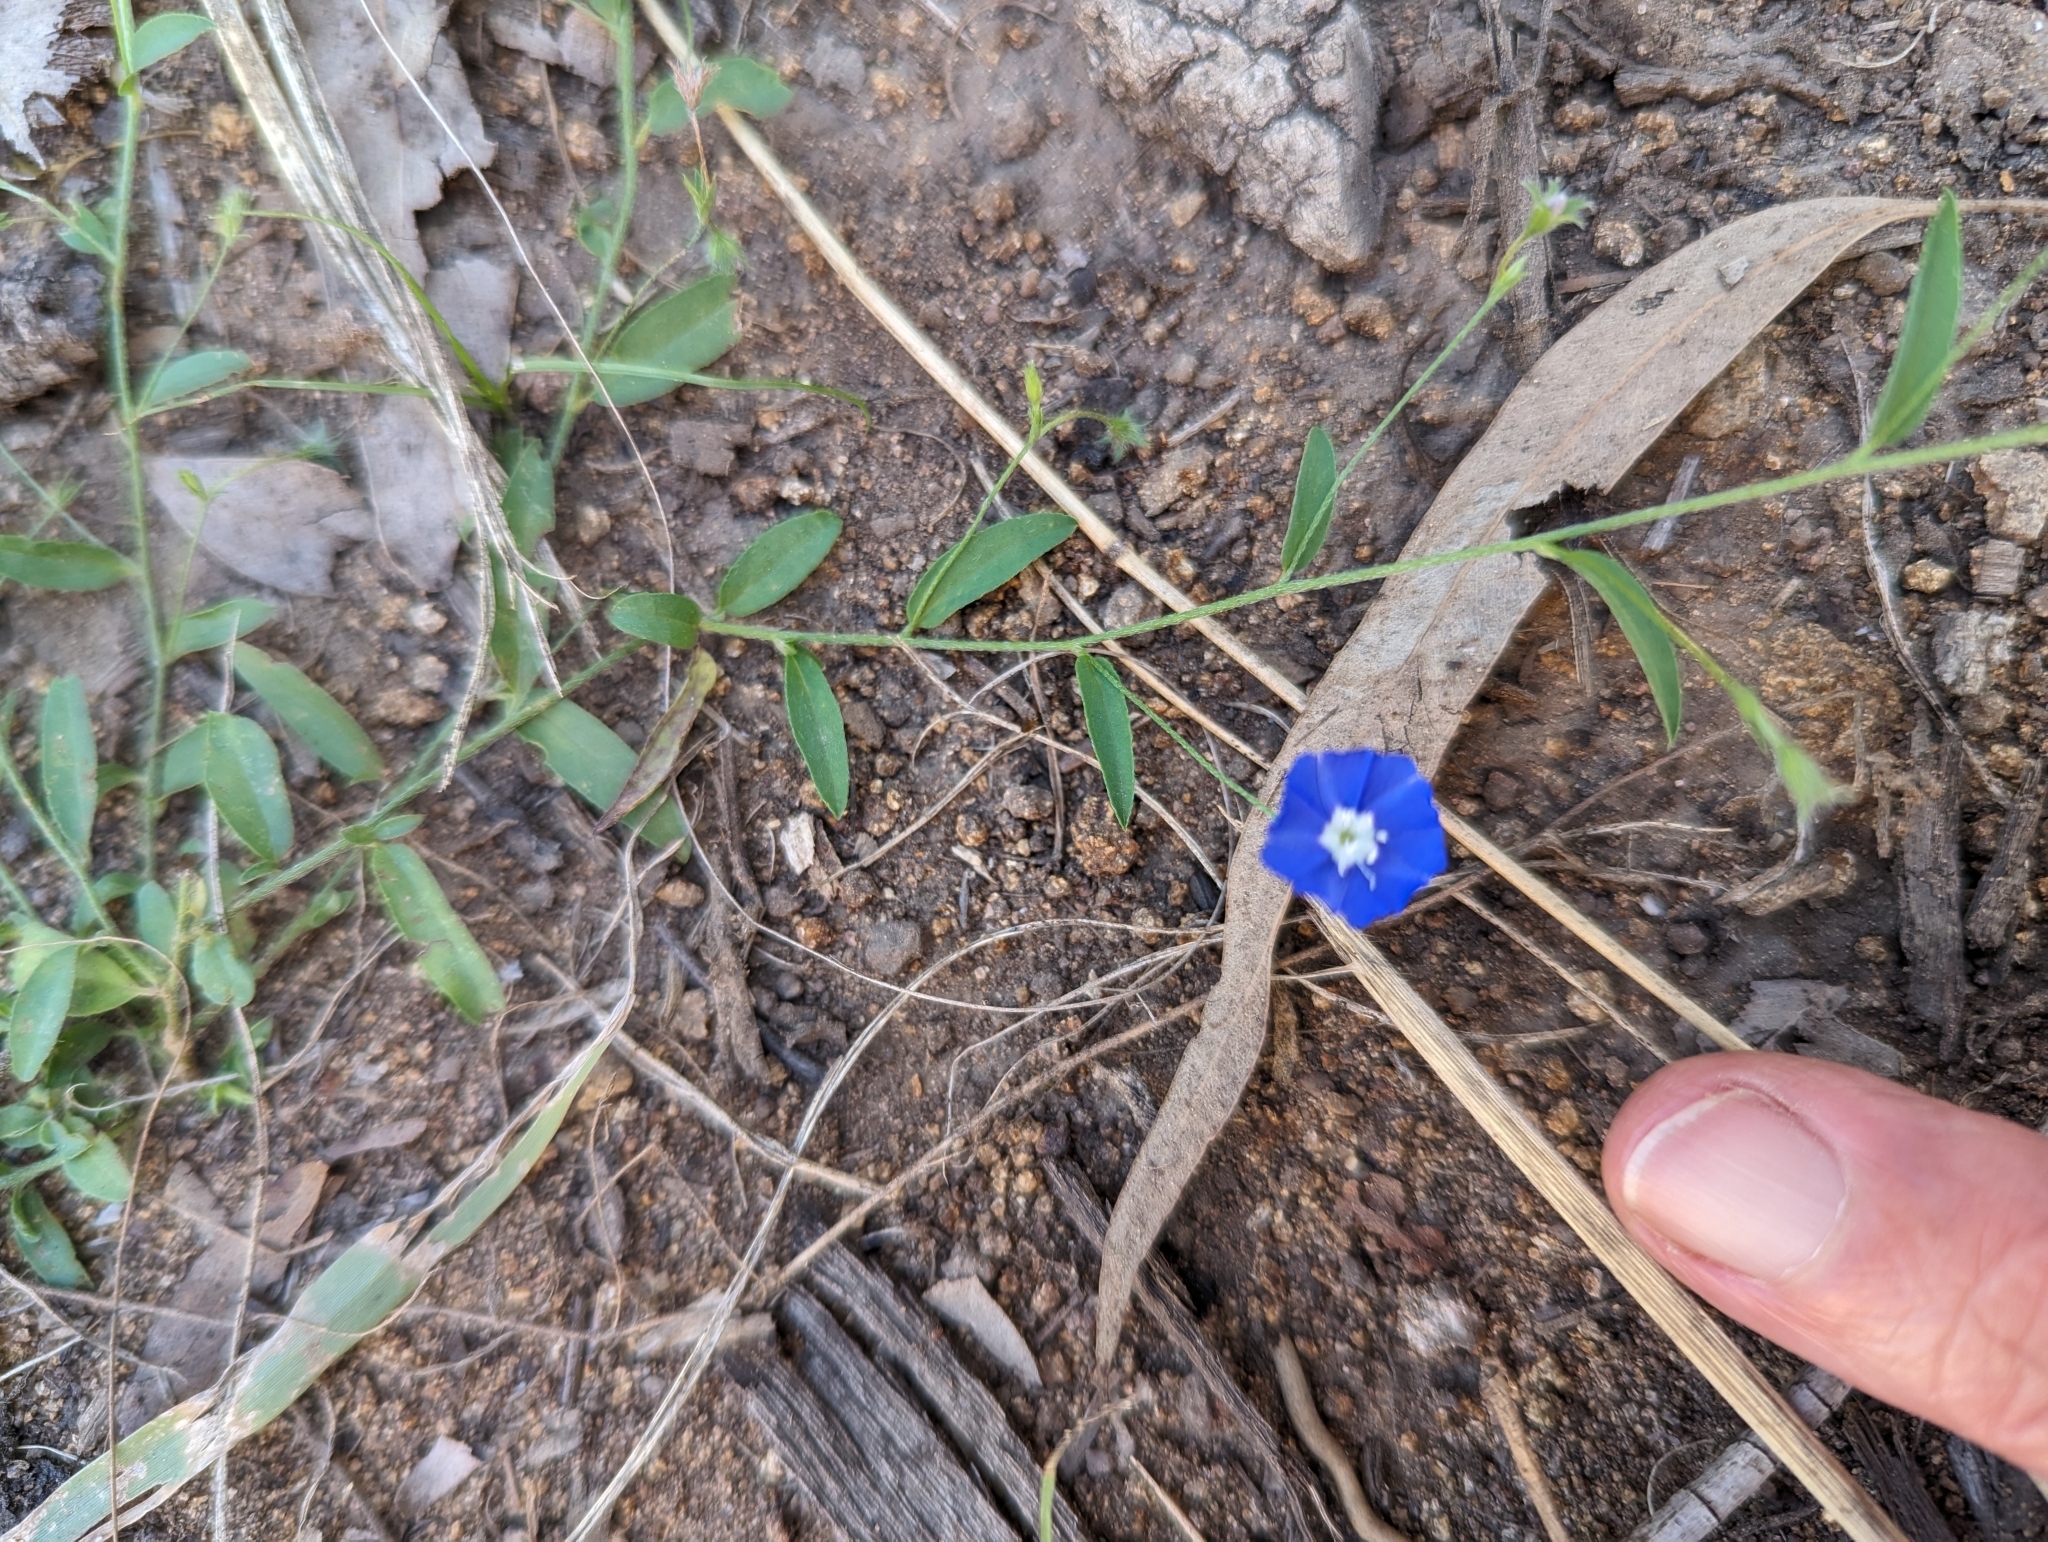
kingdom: Plantae
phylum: Tracheophyta
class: Magnoliopsida
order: Solanales
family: Convolvulaceae
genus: Evolvulus
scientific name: Evolvulus alsinoides
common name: Slender dwarf morning-glory
